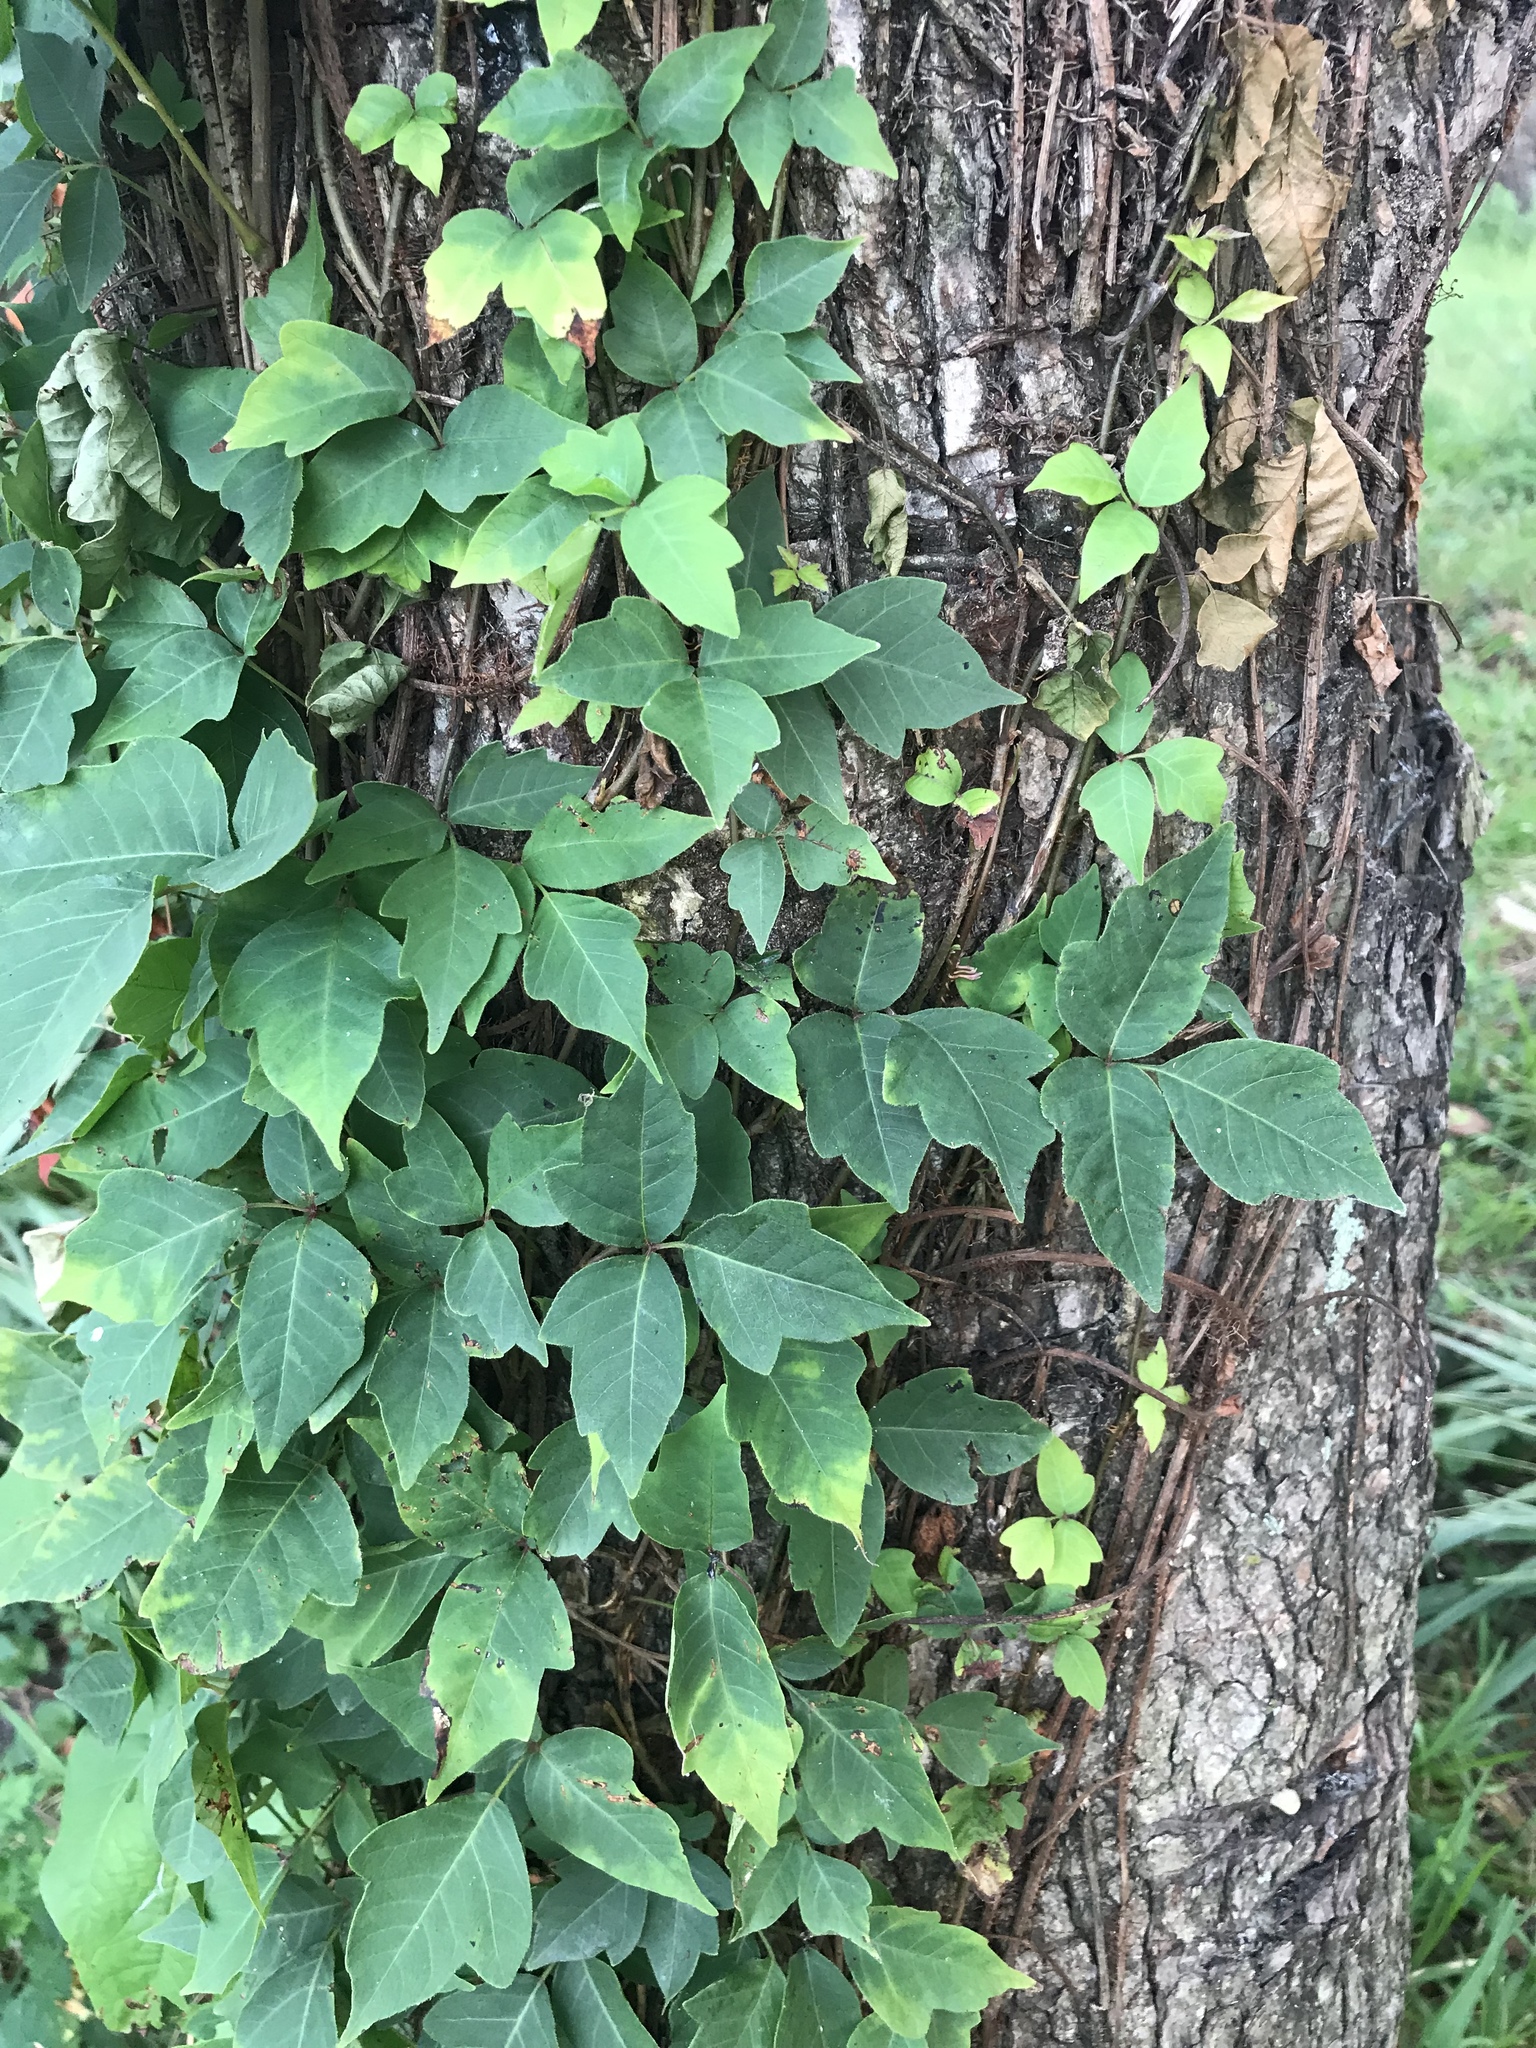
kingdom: Plantae
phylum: Tracheophyta
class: Magnoliopsida
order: Sapindales
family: Anacardiaceae
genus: Toxicodendron
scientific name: Toxicodendron radicans
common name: Poison ivy
